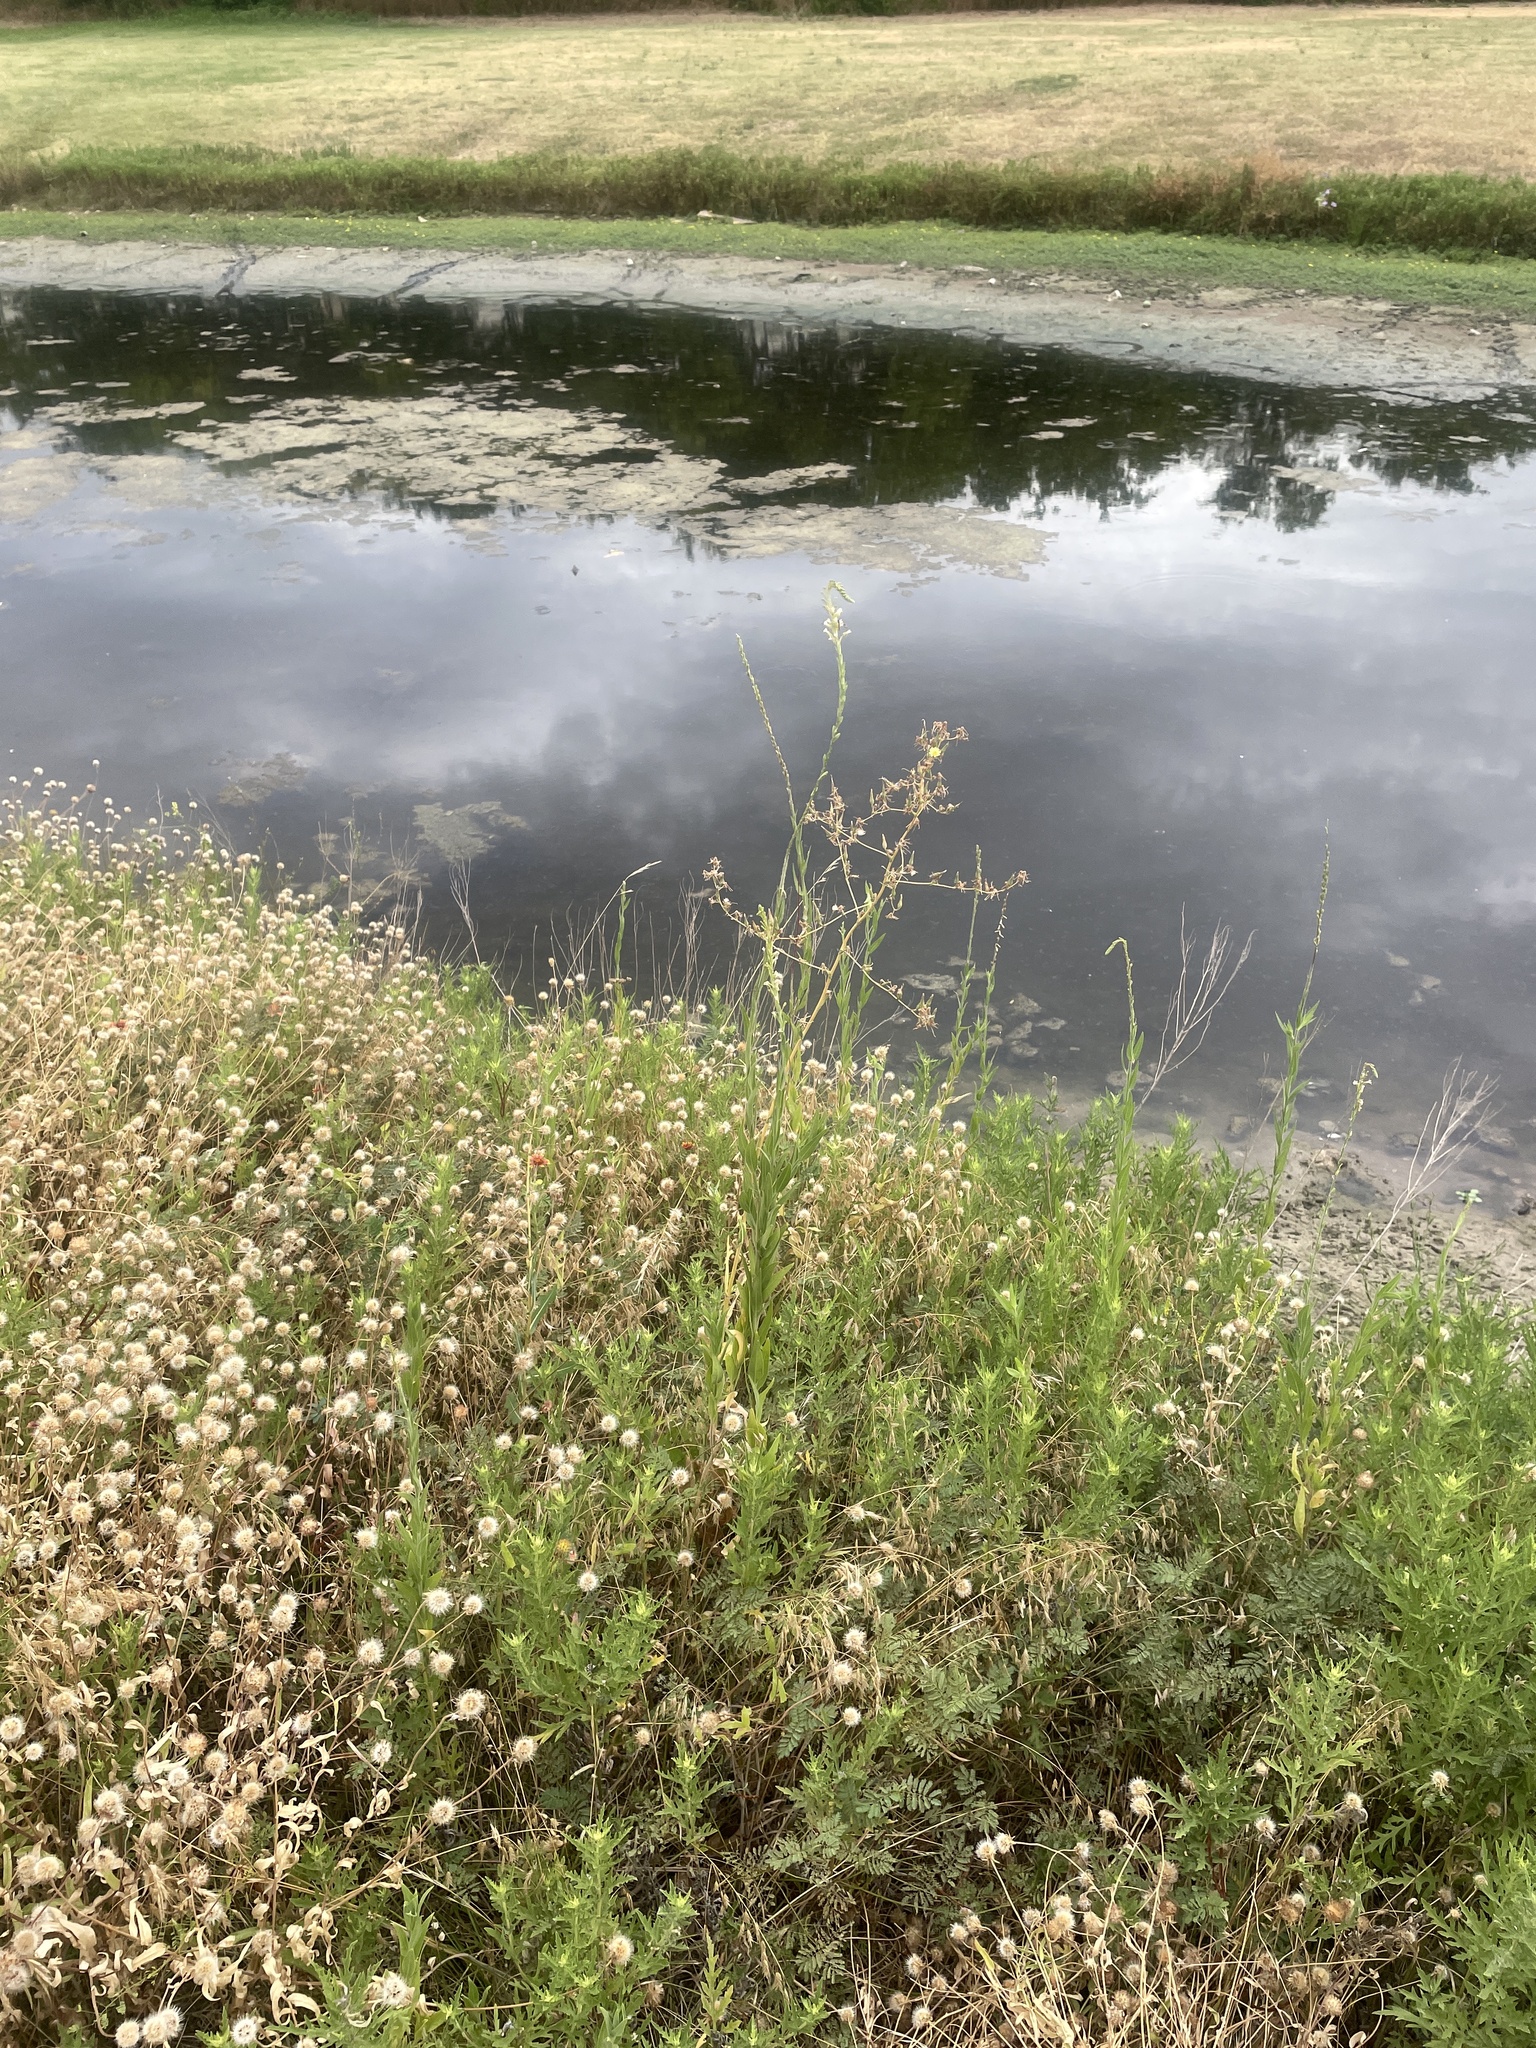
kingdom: Plantae
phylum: Tracheophyta
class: Magnoliopsida
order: Myrtales
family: Onagraceae
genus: Oenothera
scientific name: Oenothera curtiflora
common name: Velvetweed
